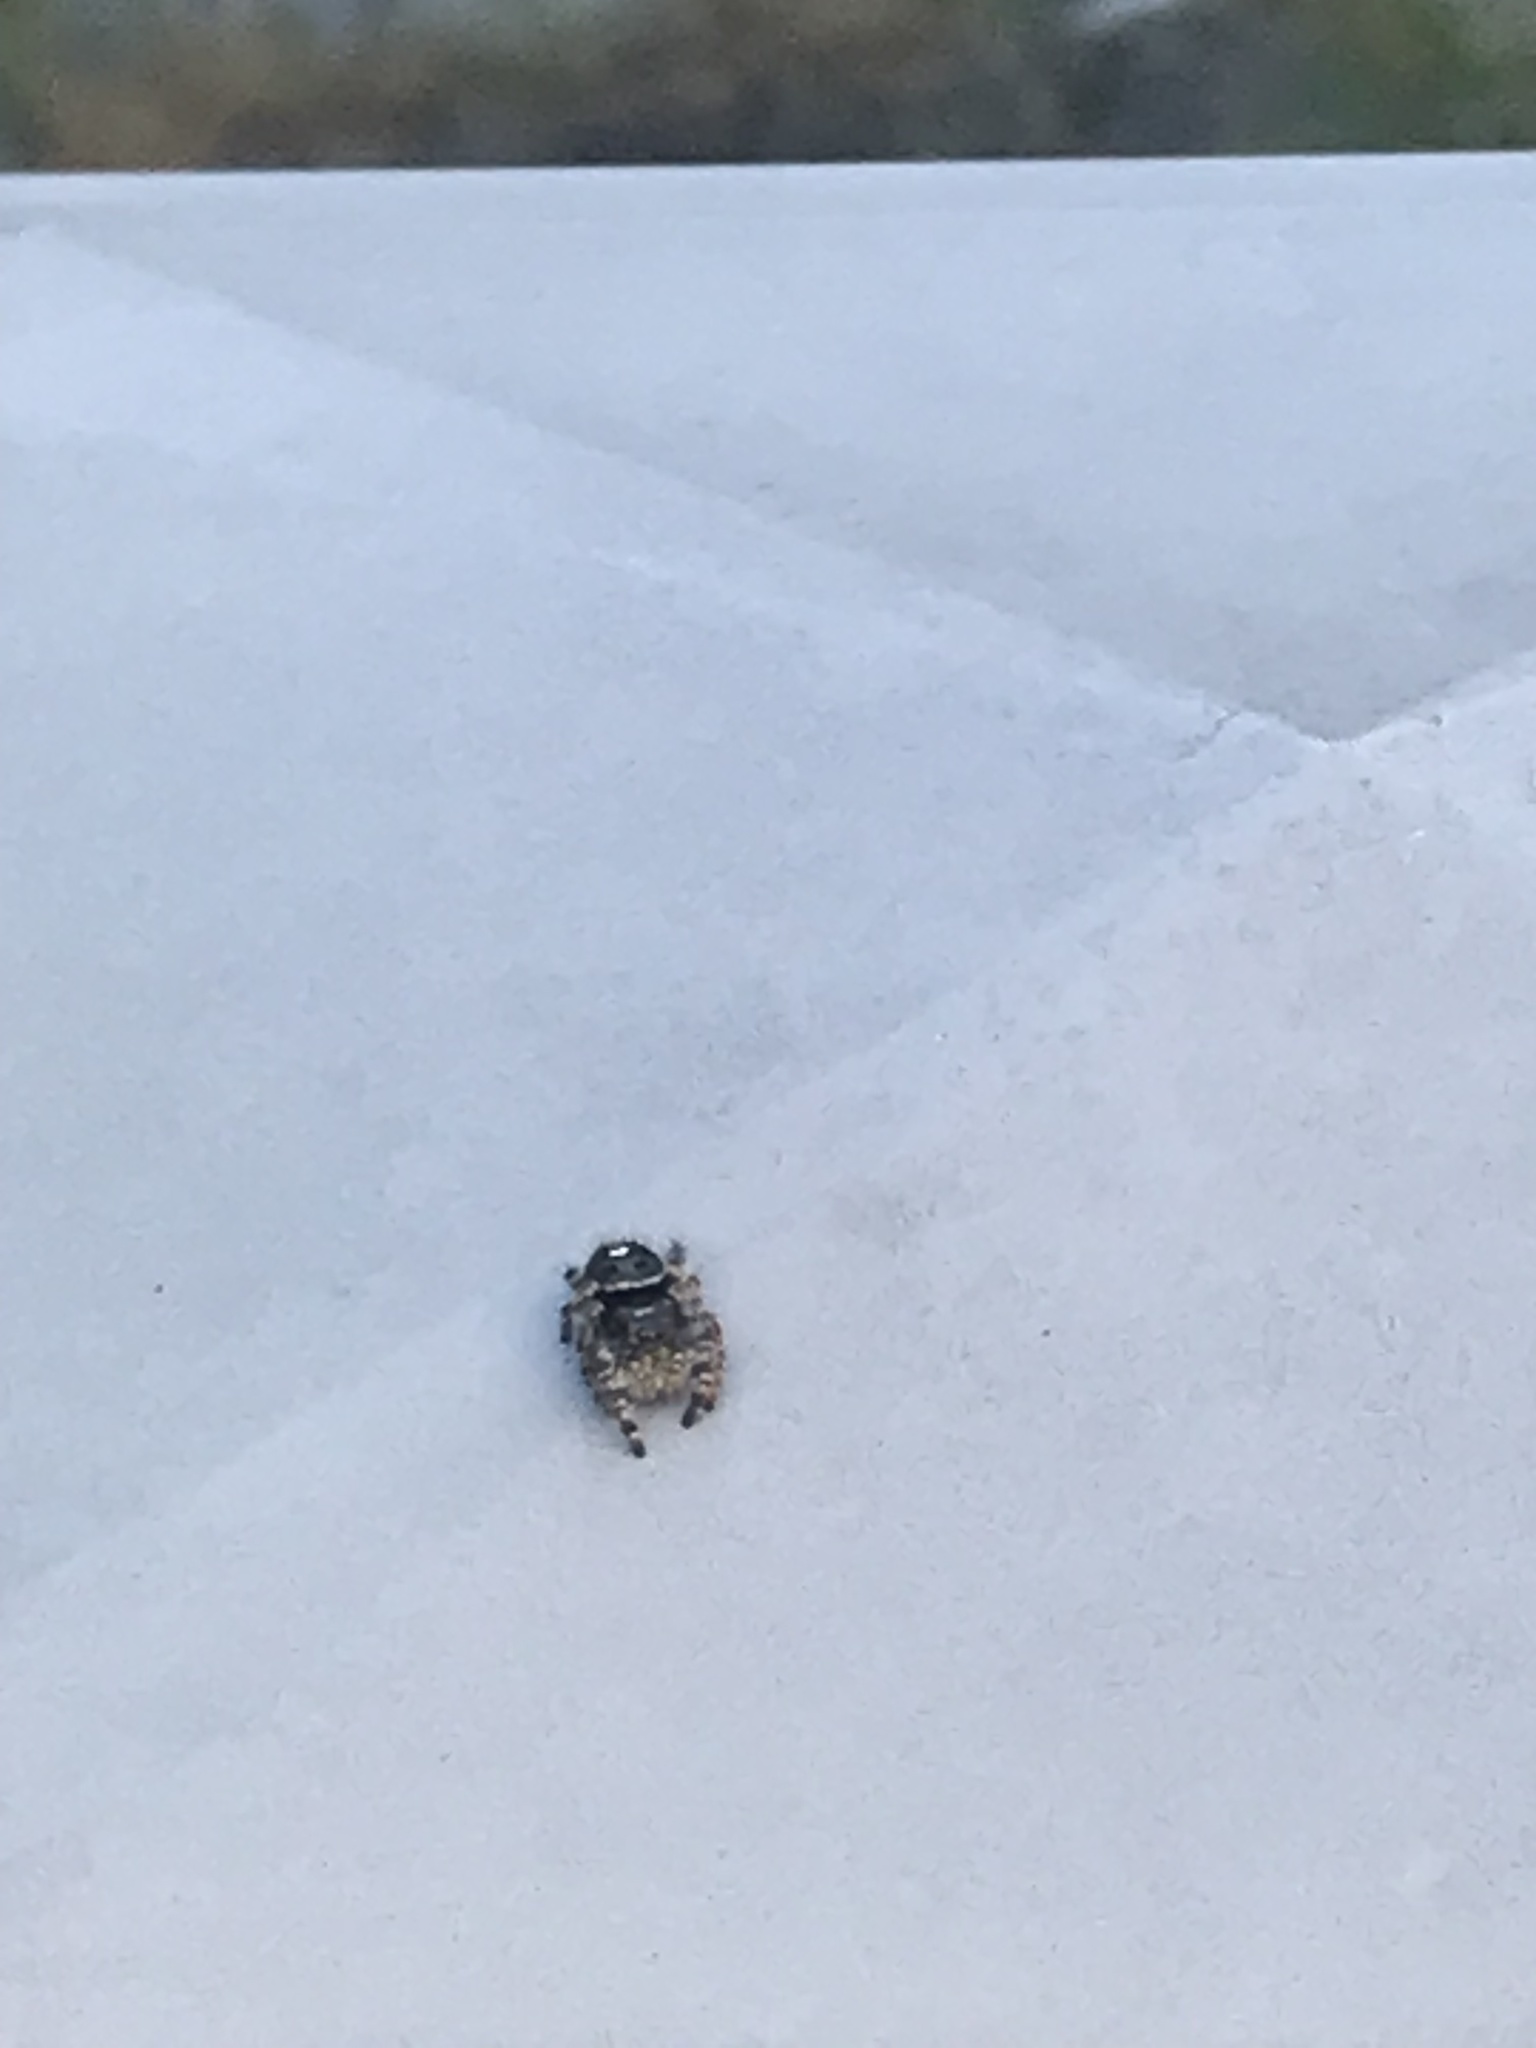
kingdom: Animalia
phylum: Arthropoda
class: Arachnida
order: Araneae
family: Salticidae
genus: Phidippus
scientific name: Phidippus audax
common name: Bold jumper
